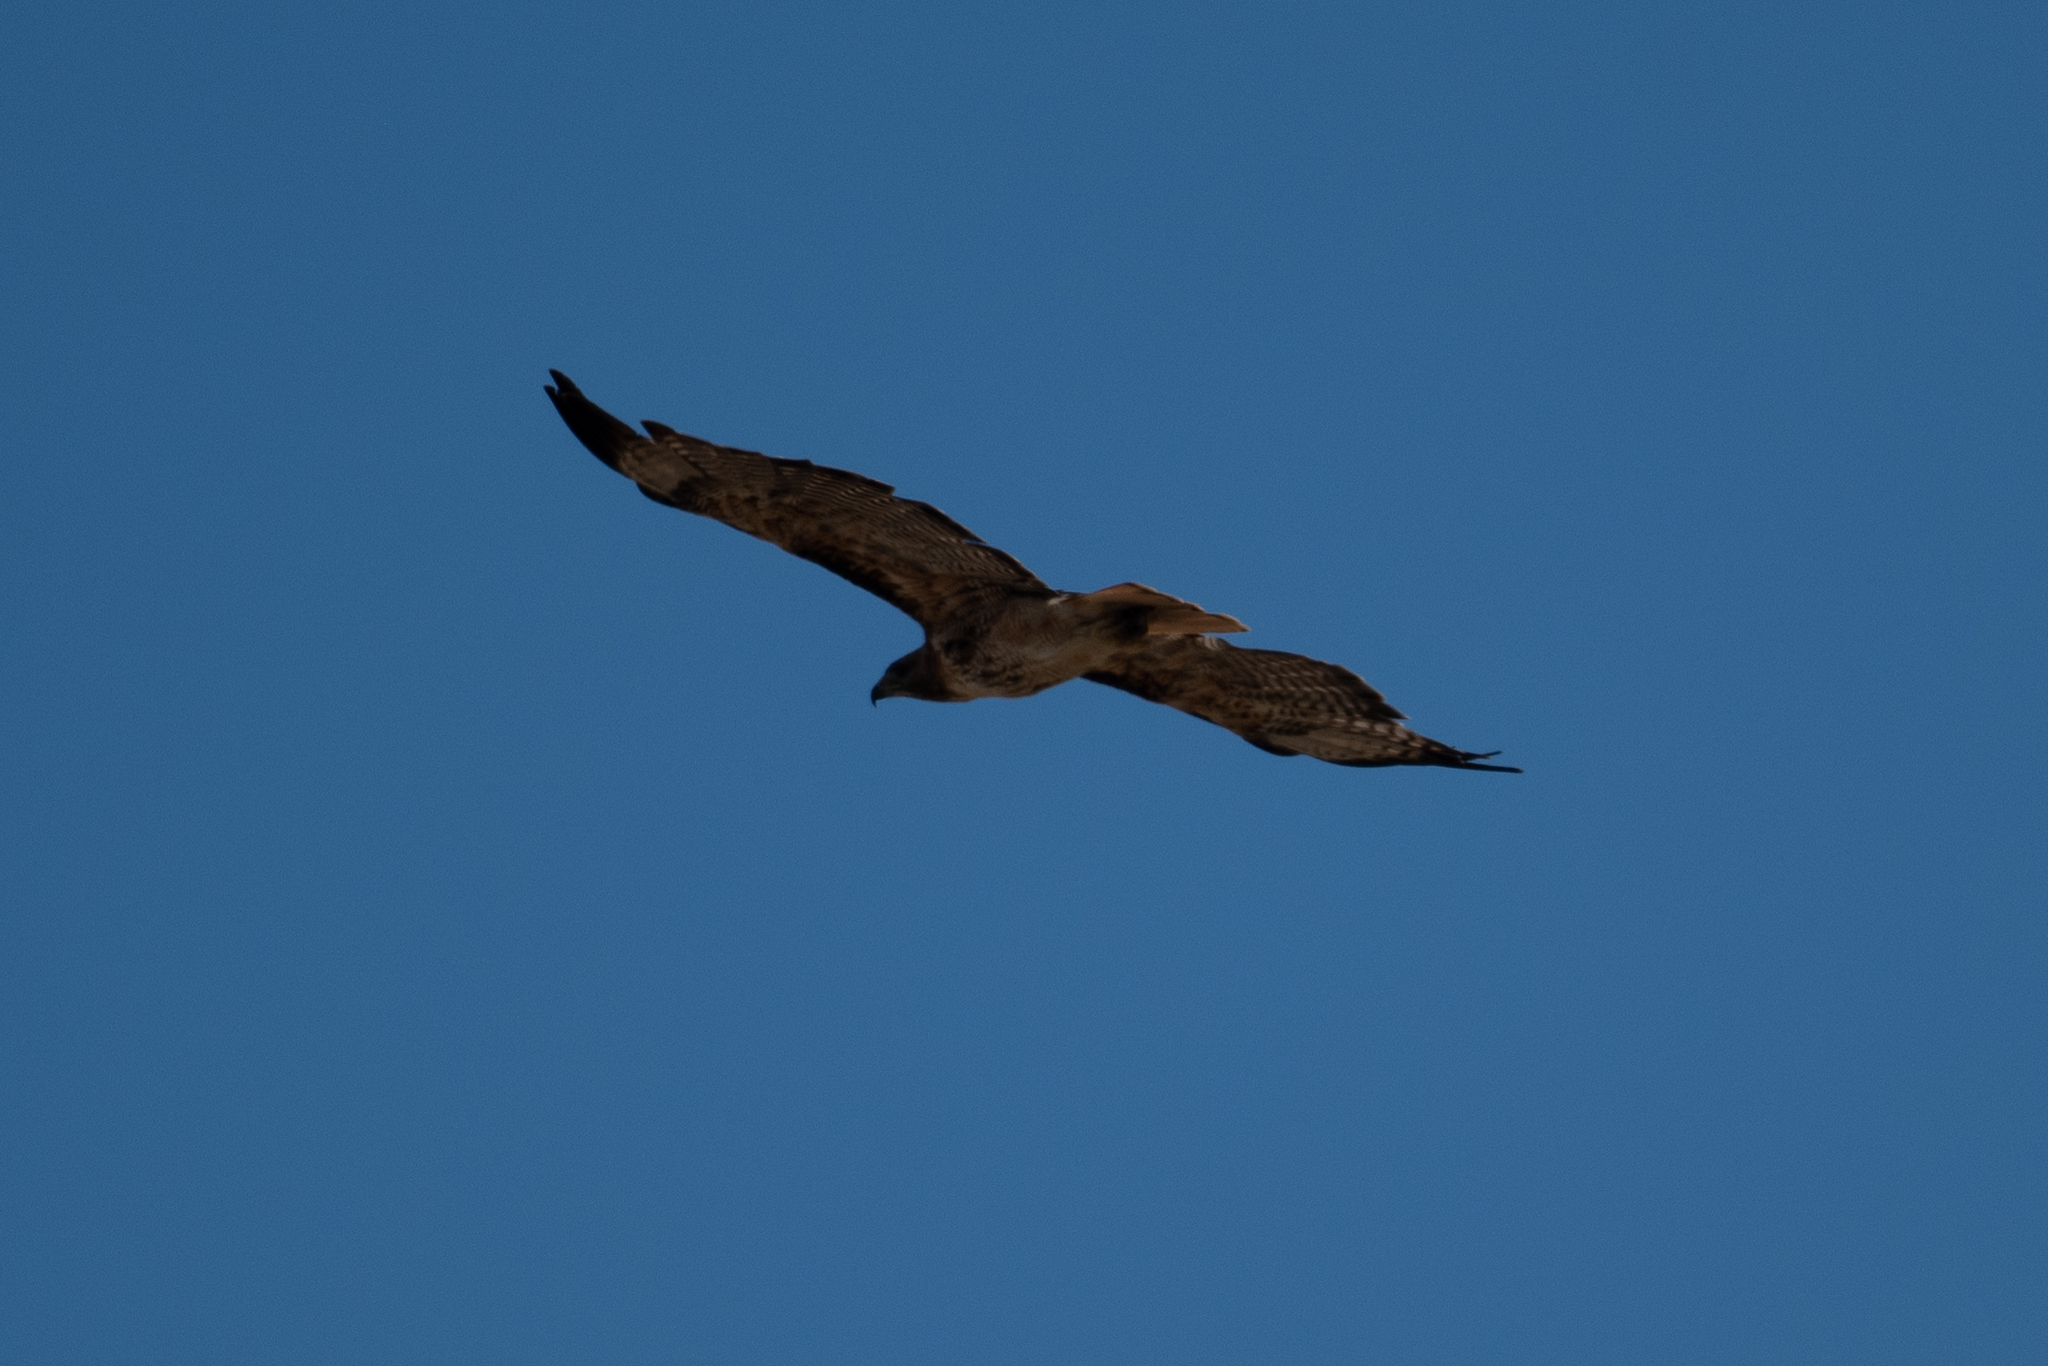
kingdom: Animalia
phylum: Chordata
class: Aves
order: Accipitriformes
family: Accipitridae
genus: Buteo
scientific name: Buteo jamaicensis
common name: Red-tailed hawk
